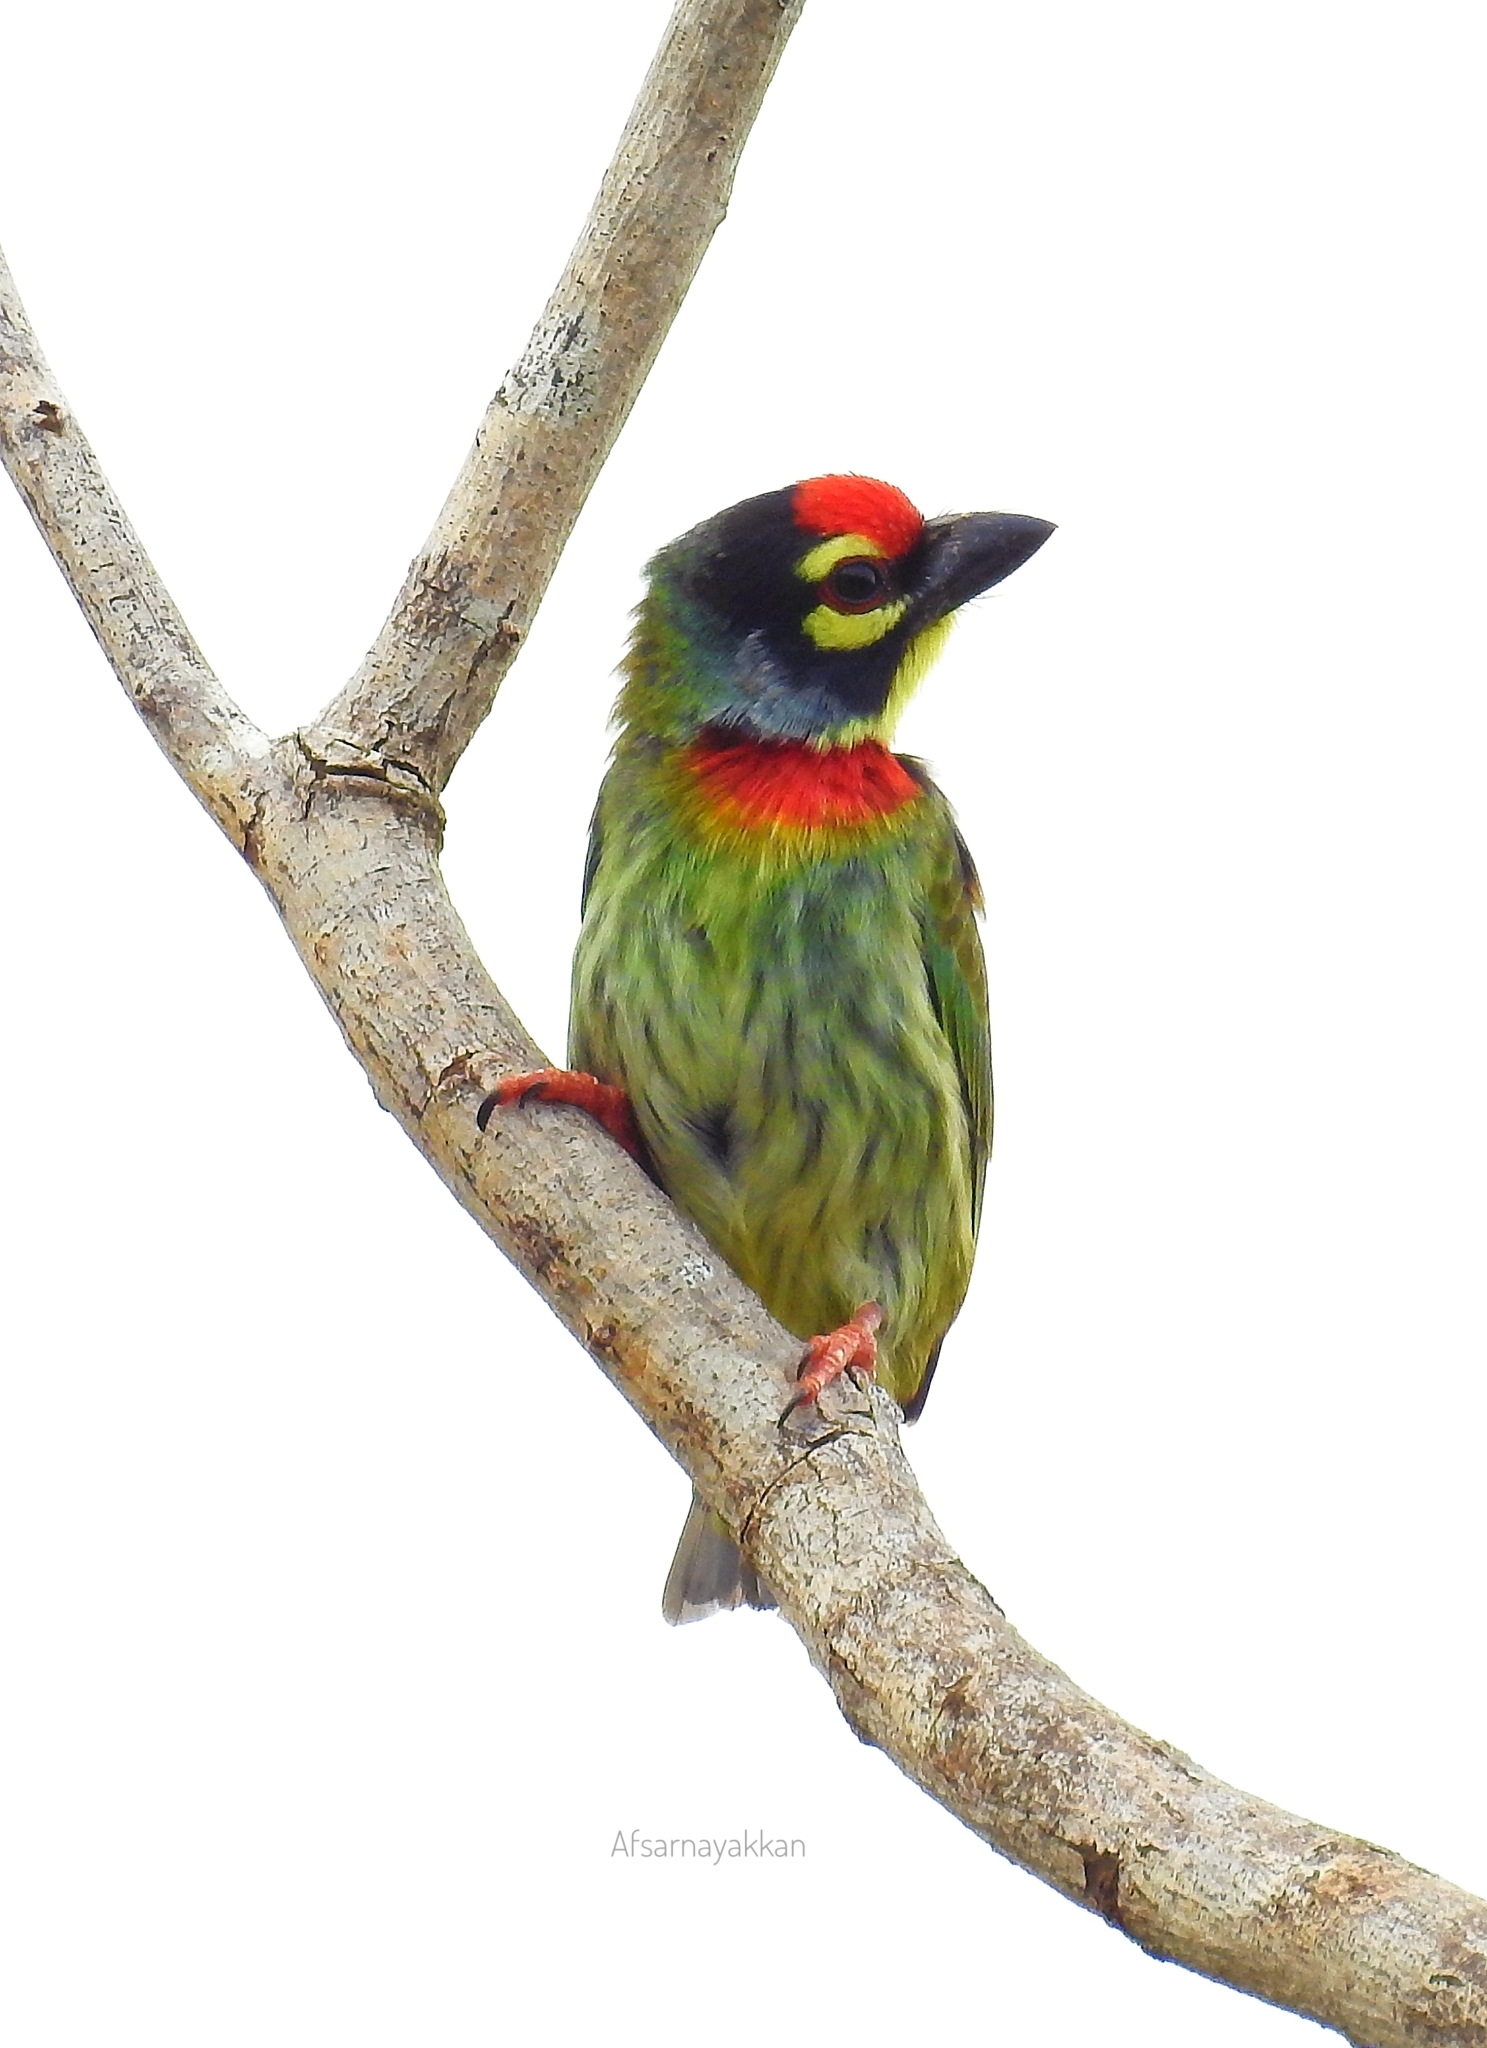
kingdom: Animalia
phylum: Chordata
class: Aves
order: Piciformes
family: Megalaimidae
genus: Psilopogon
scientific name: Psilopogon haemacephalus
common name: Coppersmith barbet
